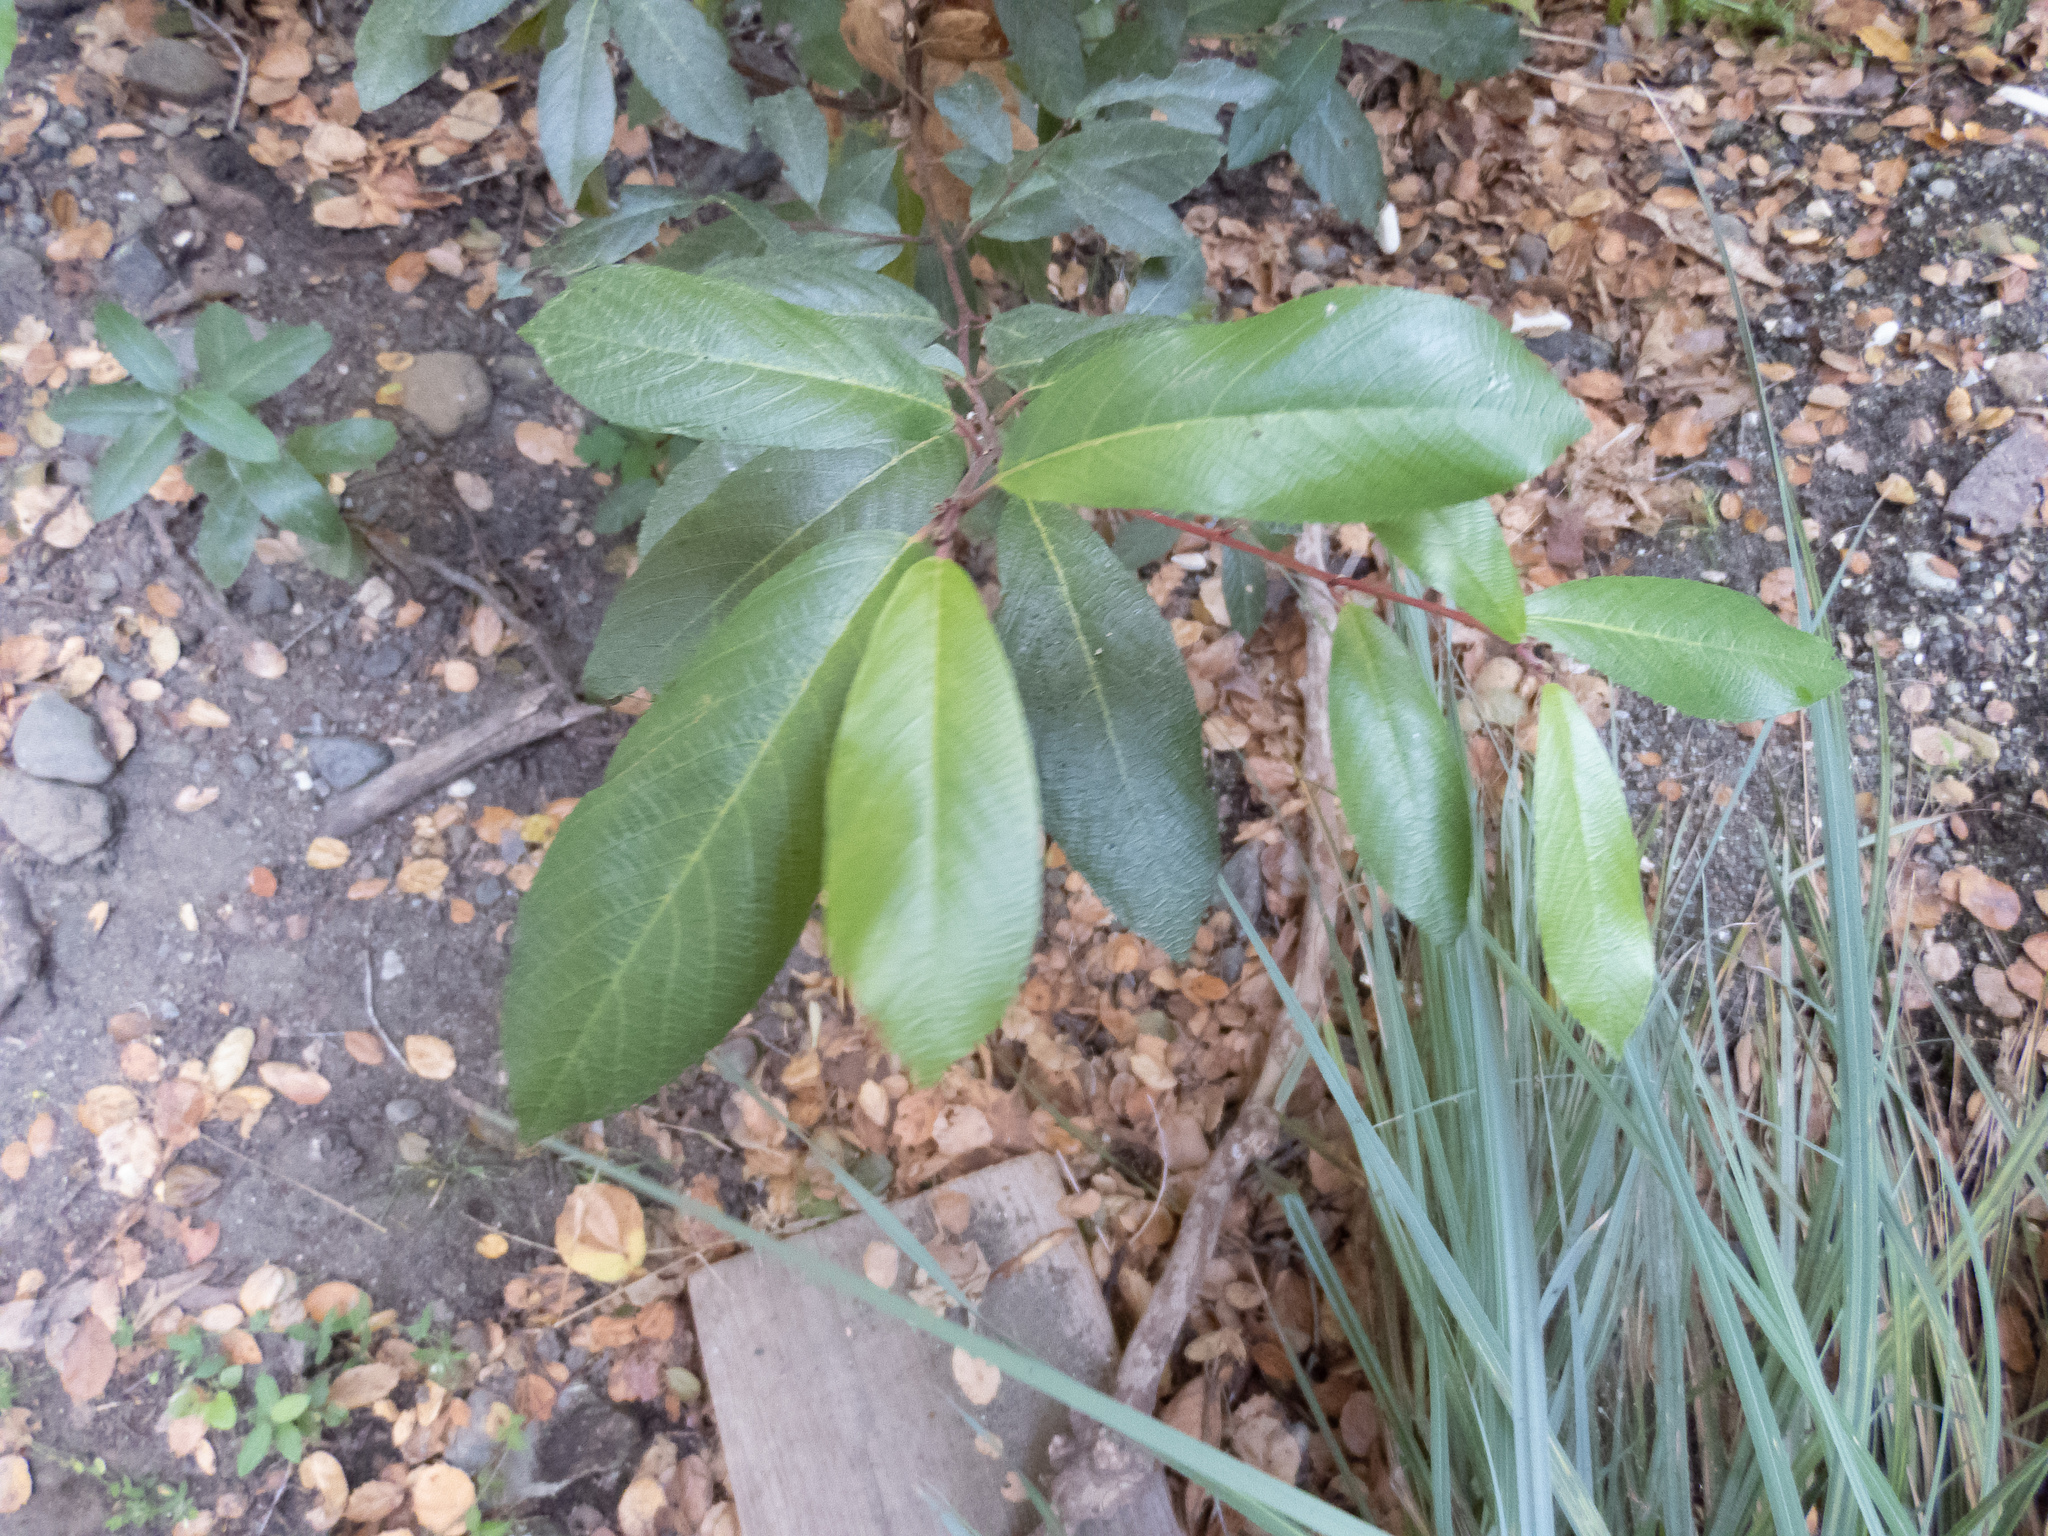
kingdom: Plantae
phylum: Tracheophyta
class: Magnoliopsida
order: Rosales
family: Rhamnaceae
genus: Frangula
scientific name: Frangula californica
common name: California buckthorn
